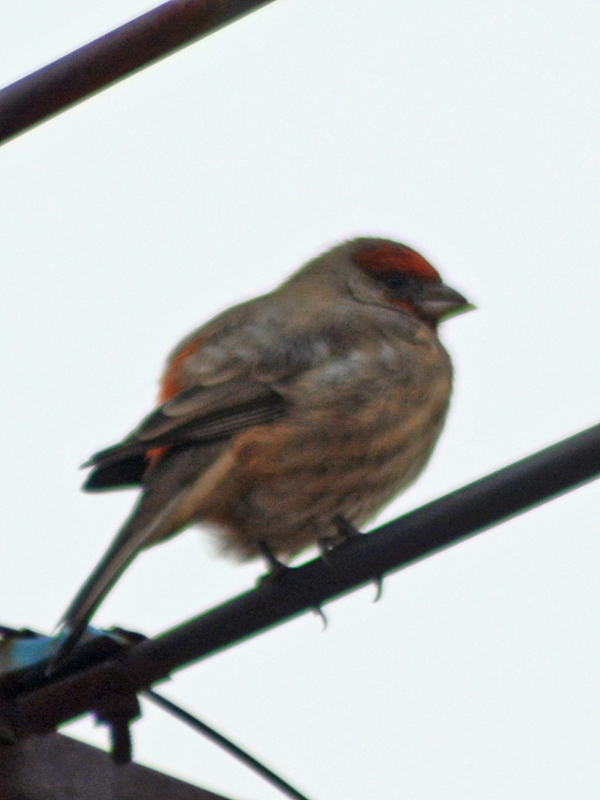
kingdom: Animalia
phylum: Chordata
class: Aves
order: Passeriformes
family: Fringillidae
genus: Haemorhous
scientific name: Haemorhous mexicanus
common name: House finch
